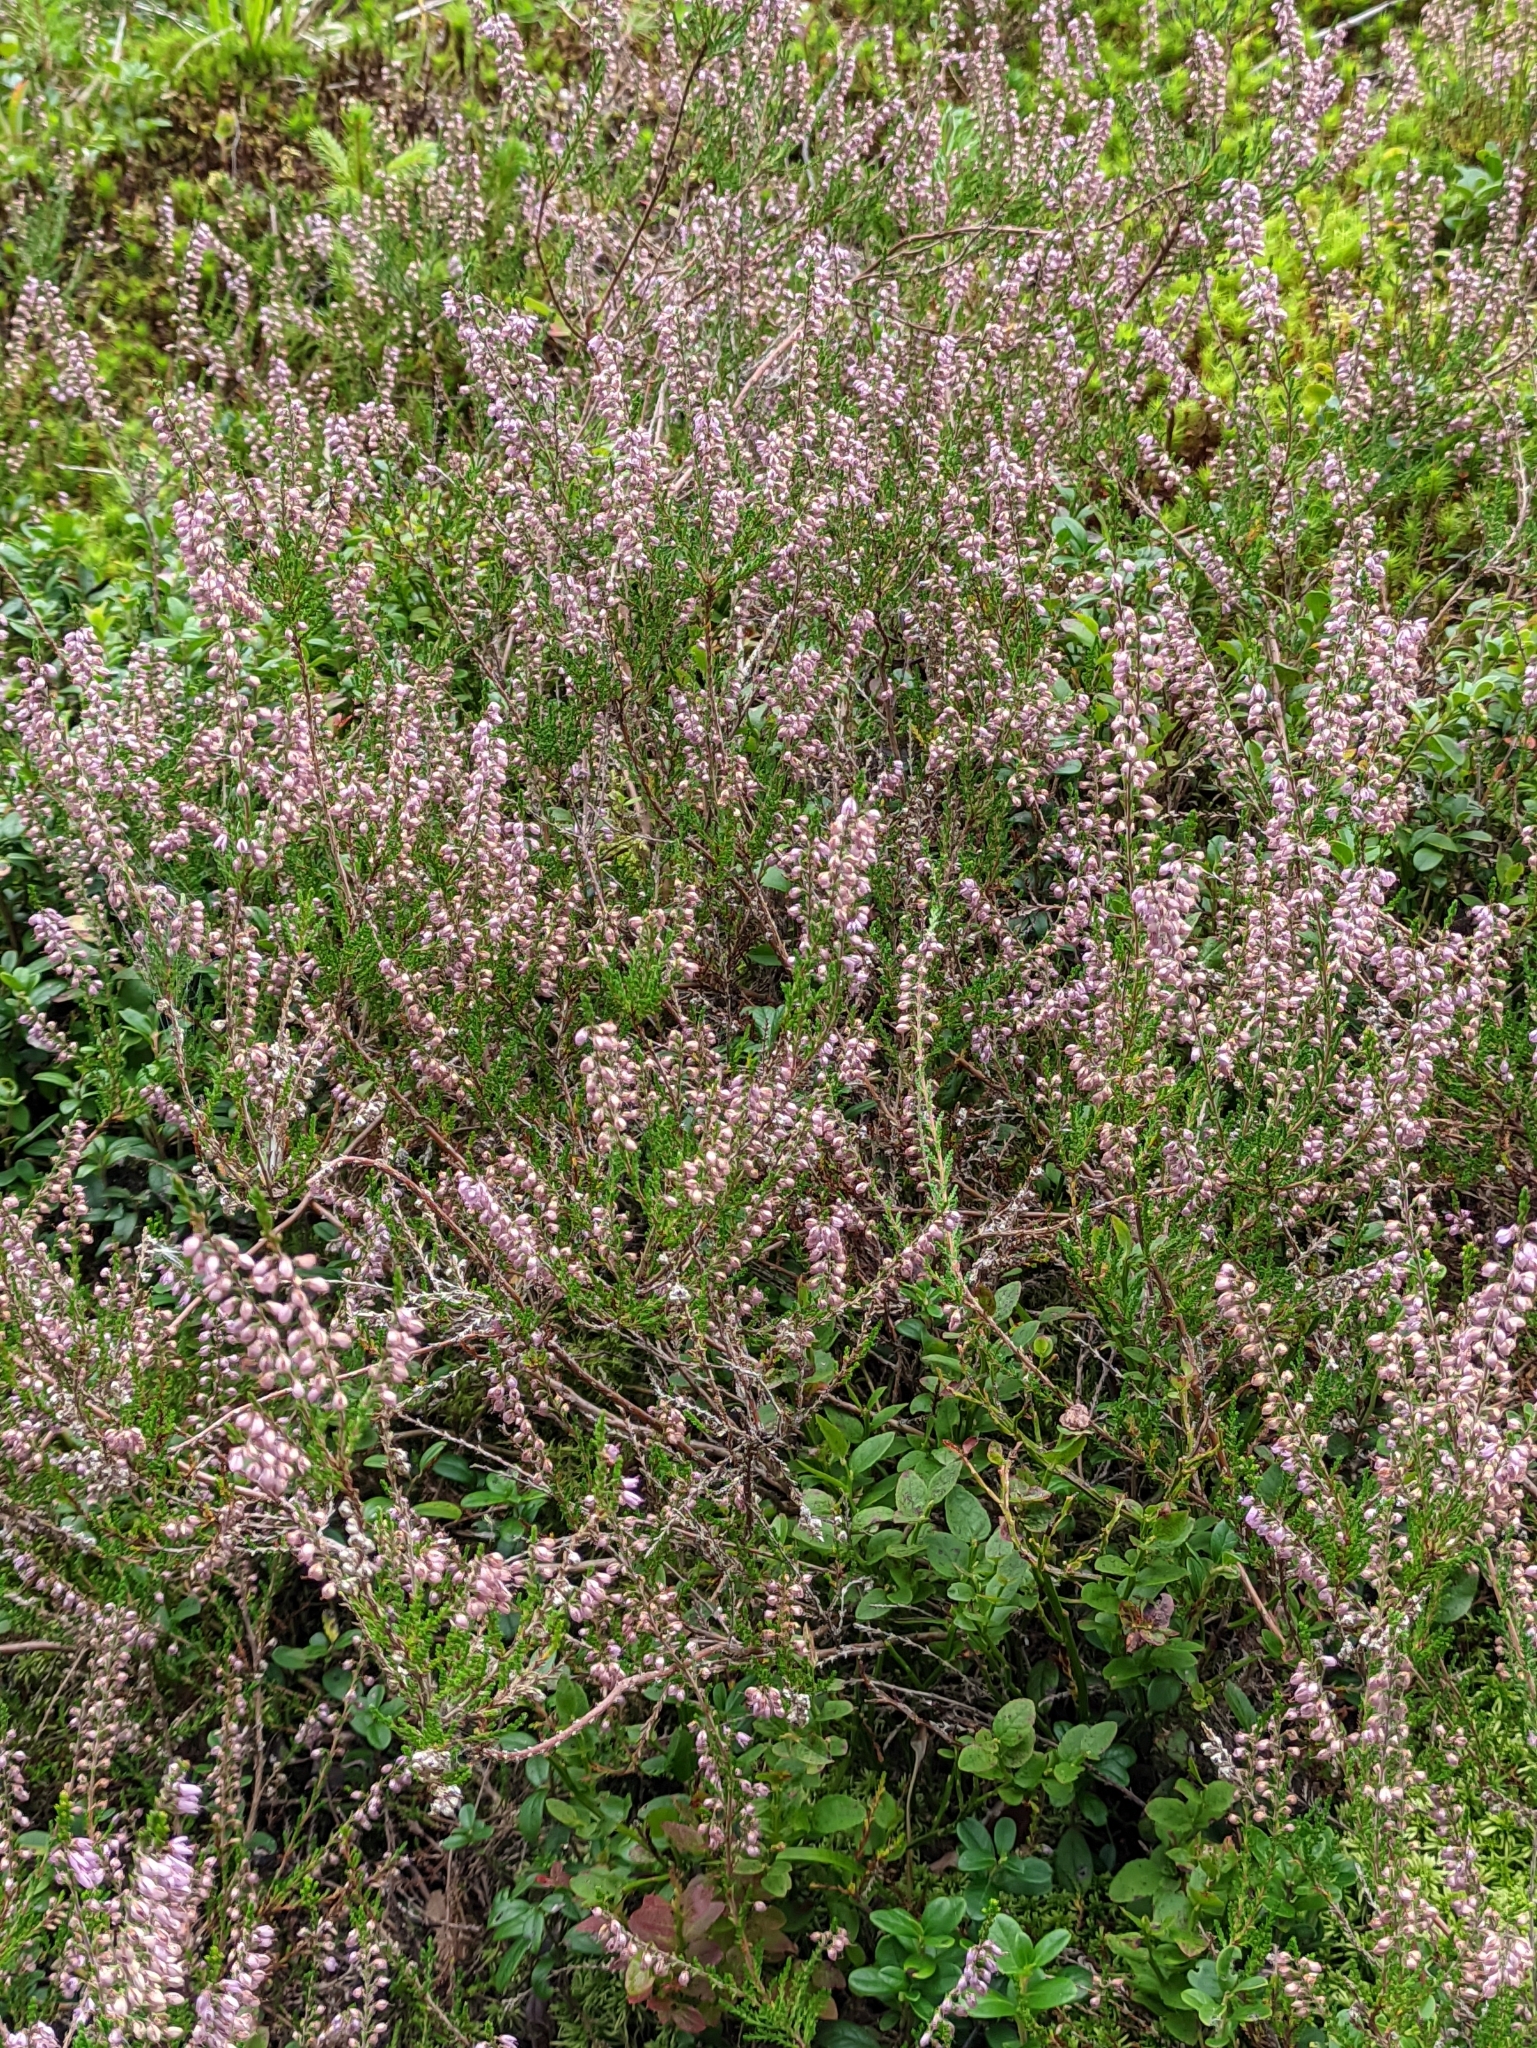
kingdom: Plantae
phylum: Tracheophyta
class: Magnoliopsida
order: Ericales
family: Ericaceae
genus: Calluna
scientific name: Calluna vulgaris
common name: Heather
